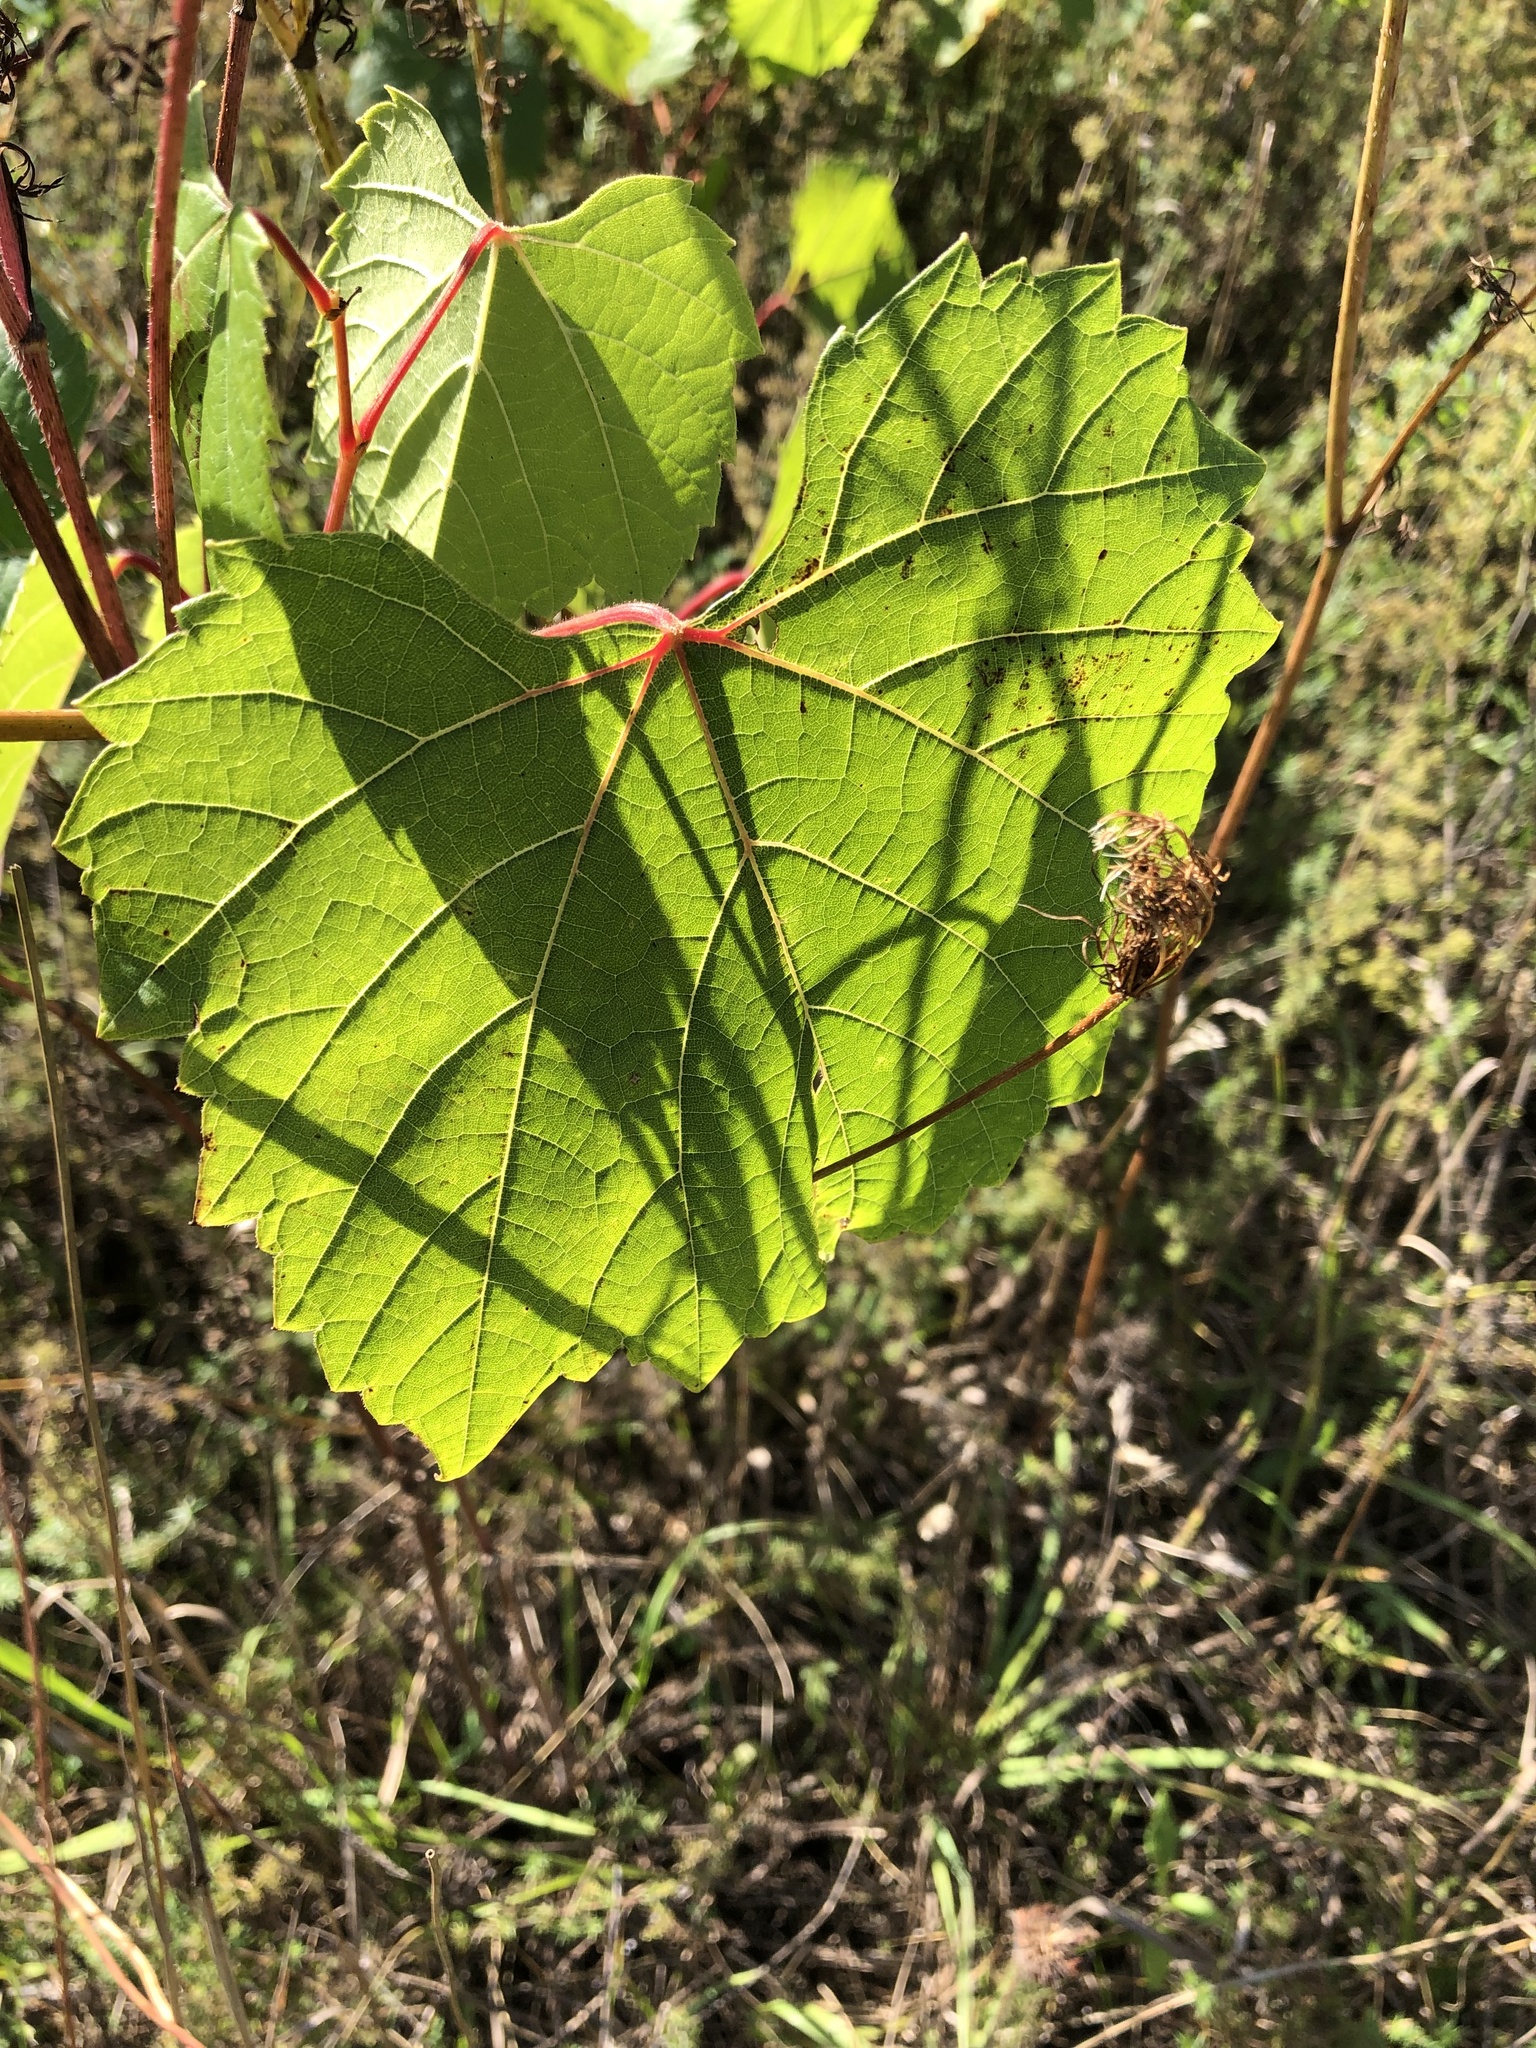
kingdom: Plantae
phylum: Tracheophyta
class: Magnoliopsida
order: Vitales
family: Vitaceae
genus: Vitis
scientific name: Vitis riparia
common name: Frost grape
